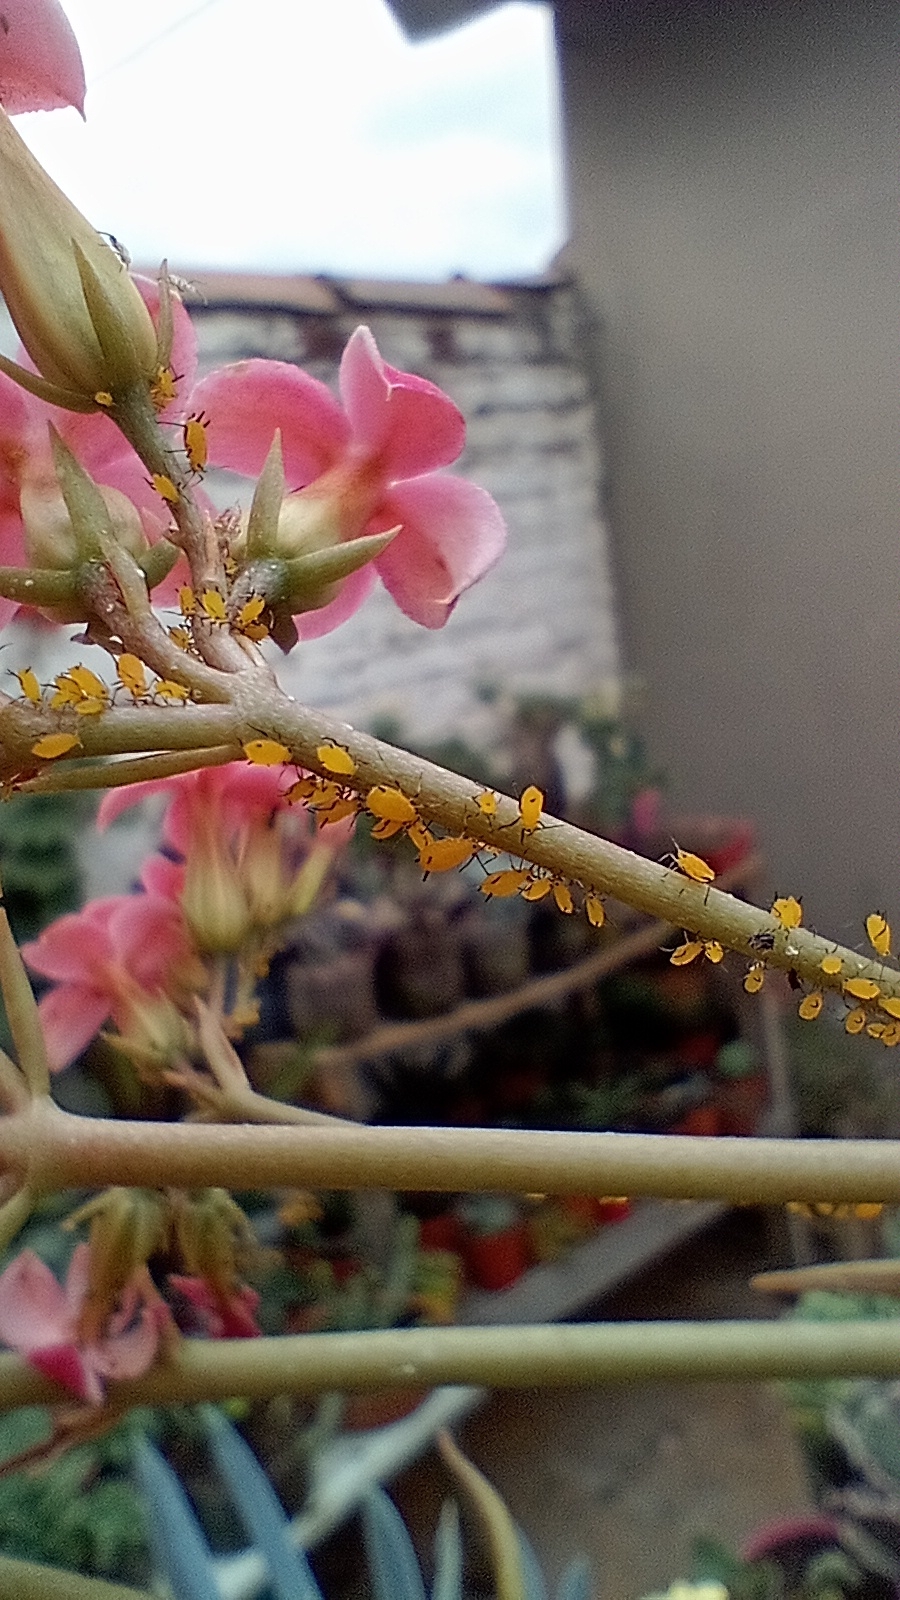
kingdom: Animalia
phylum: Arthropoda
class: Insecta
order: Hemiptera
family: Aphididae
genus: Aphis
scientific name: Aphis nerii
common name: Oleander aphid
